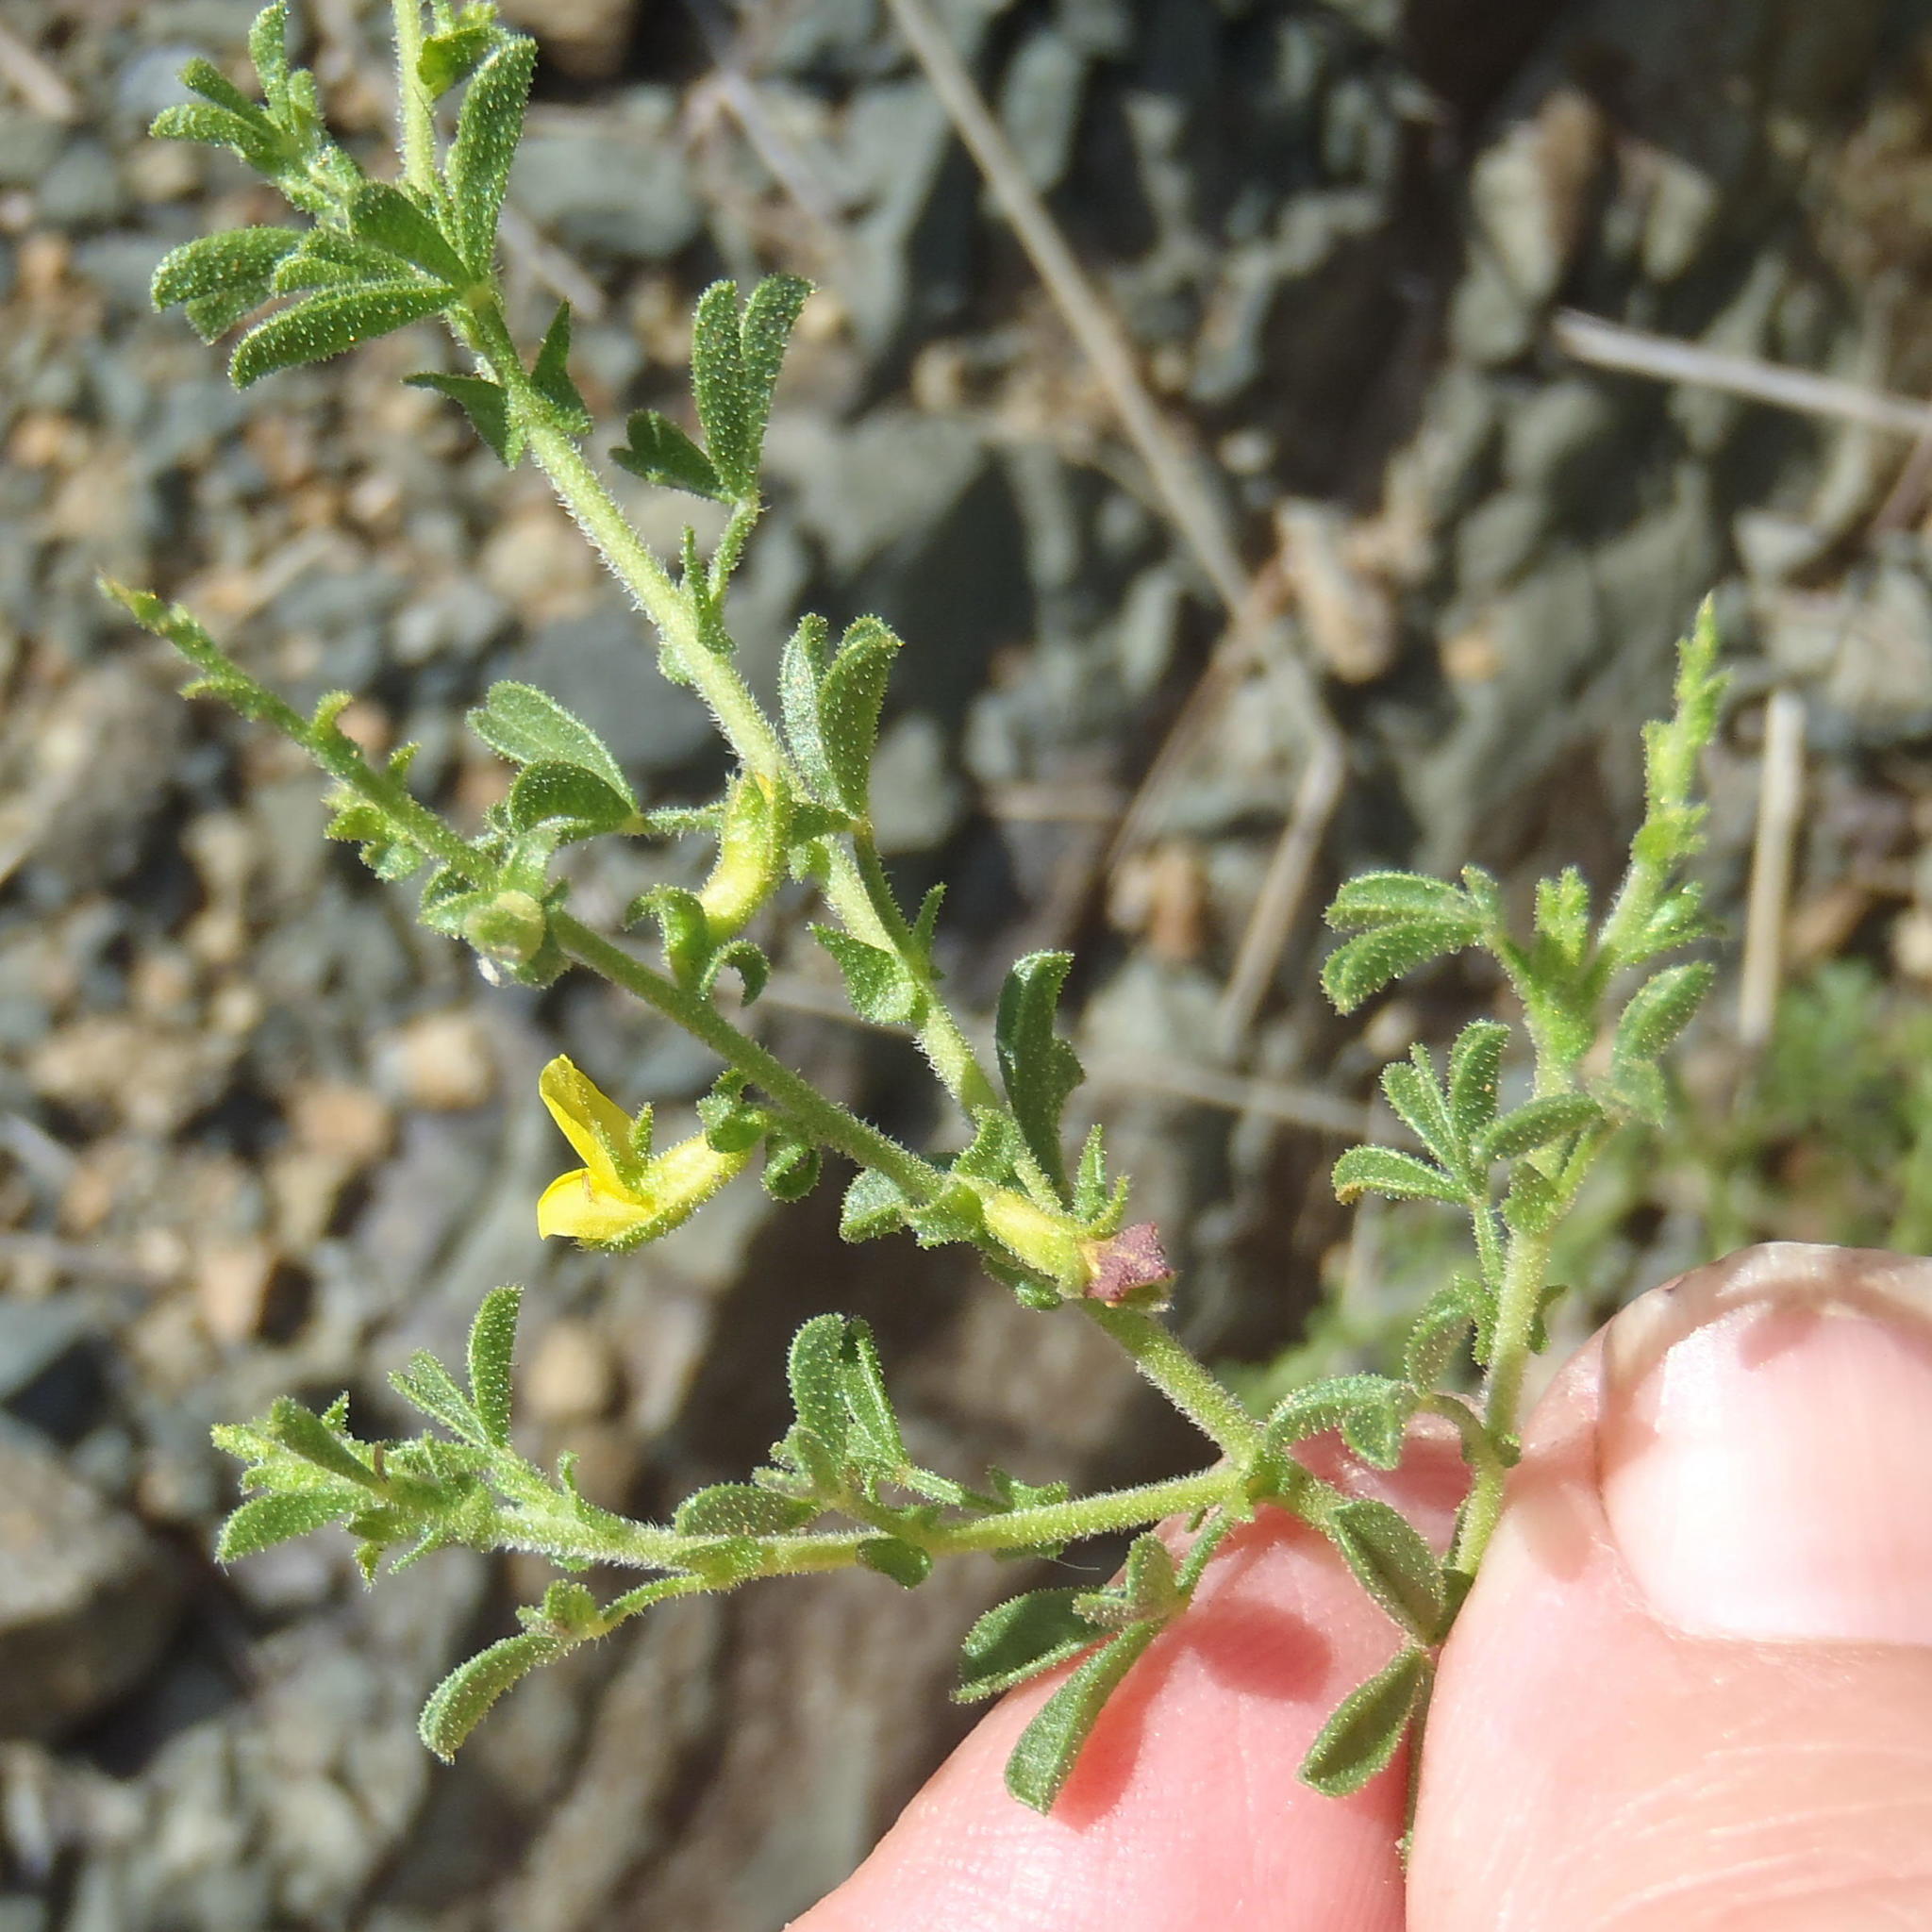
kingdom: Plantae
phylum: Tracheophyta
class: Magnoliopsida
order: Fabales
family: Fabaceae
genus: Melolobium
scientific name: Melolobium obcordatum
